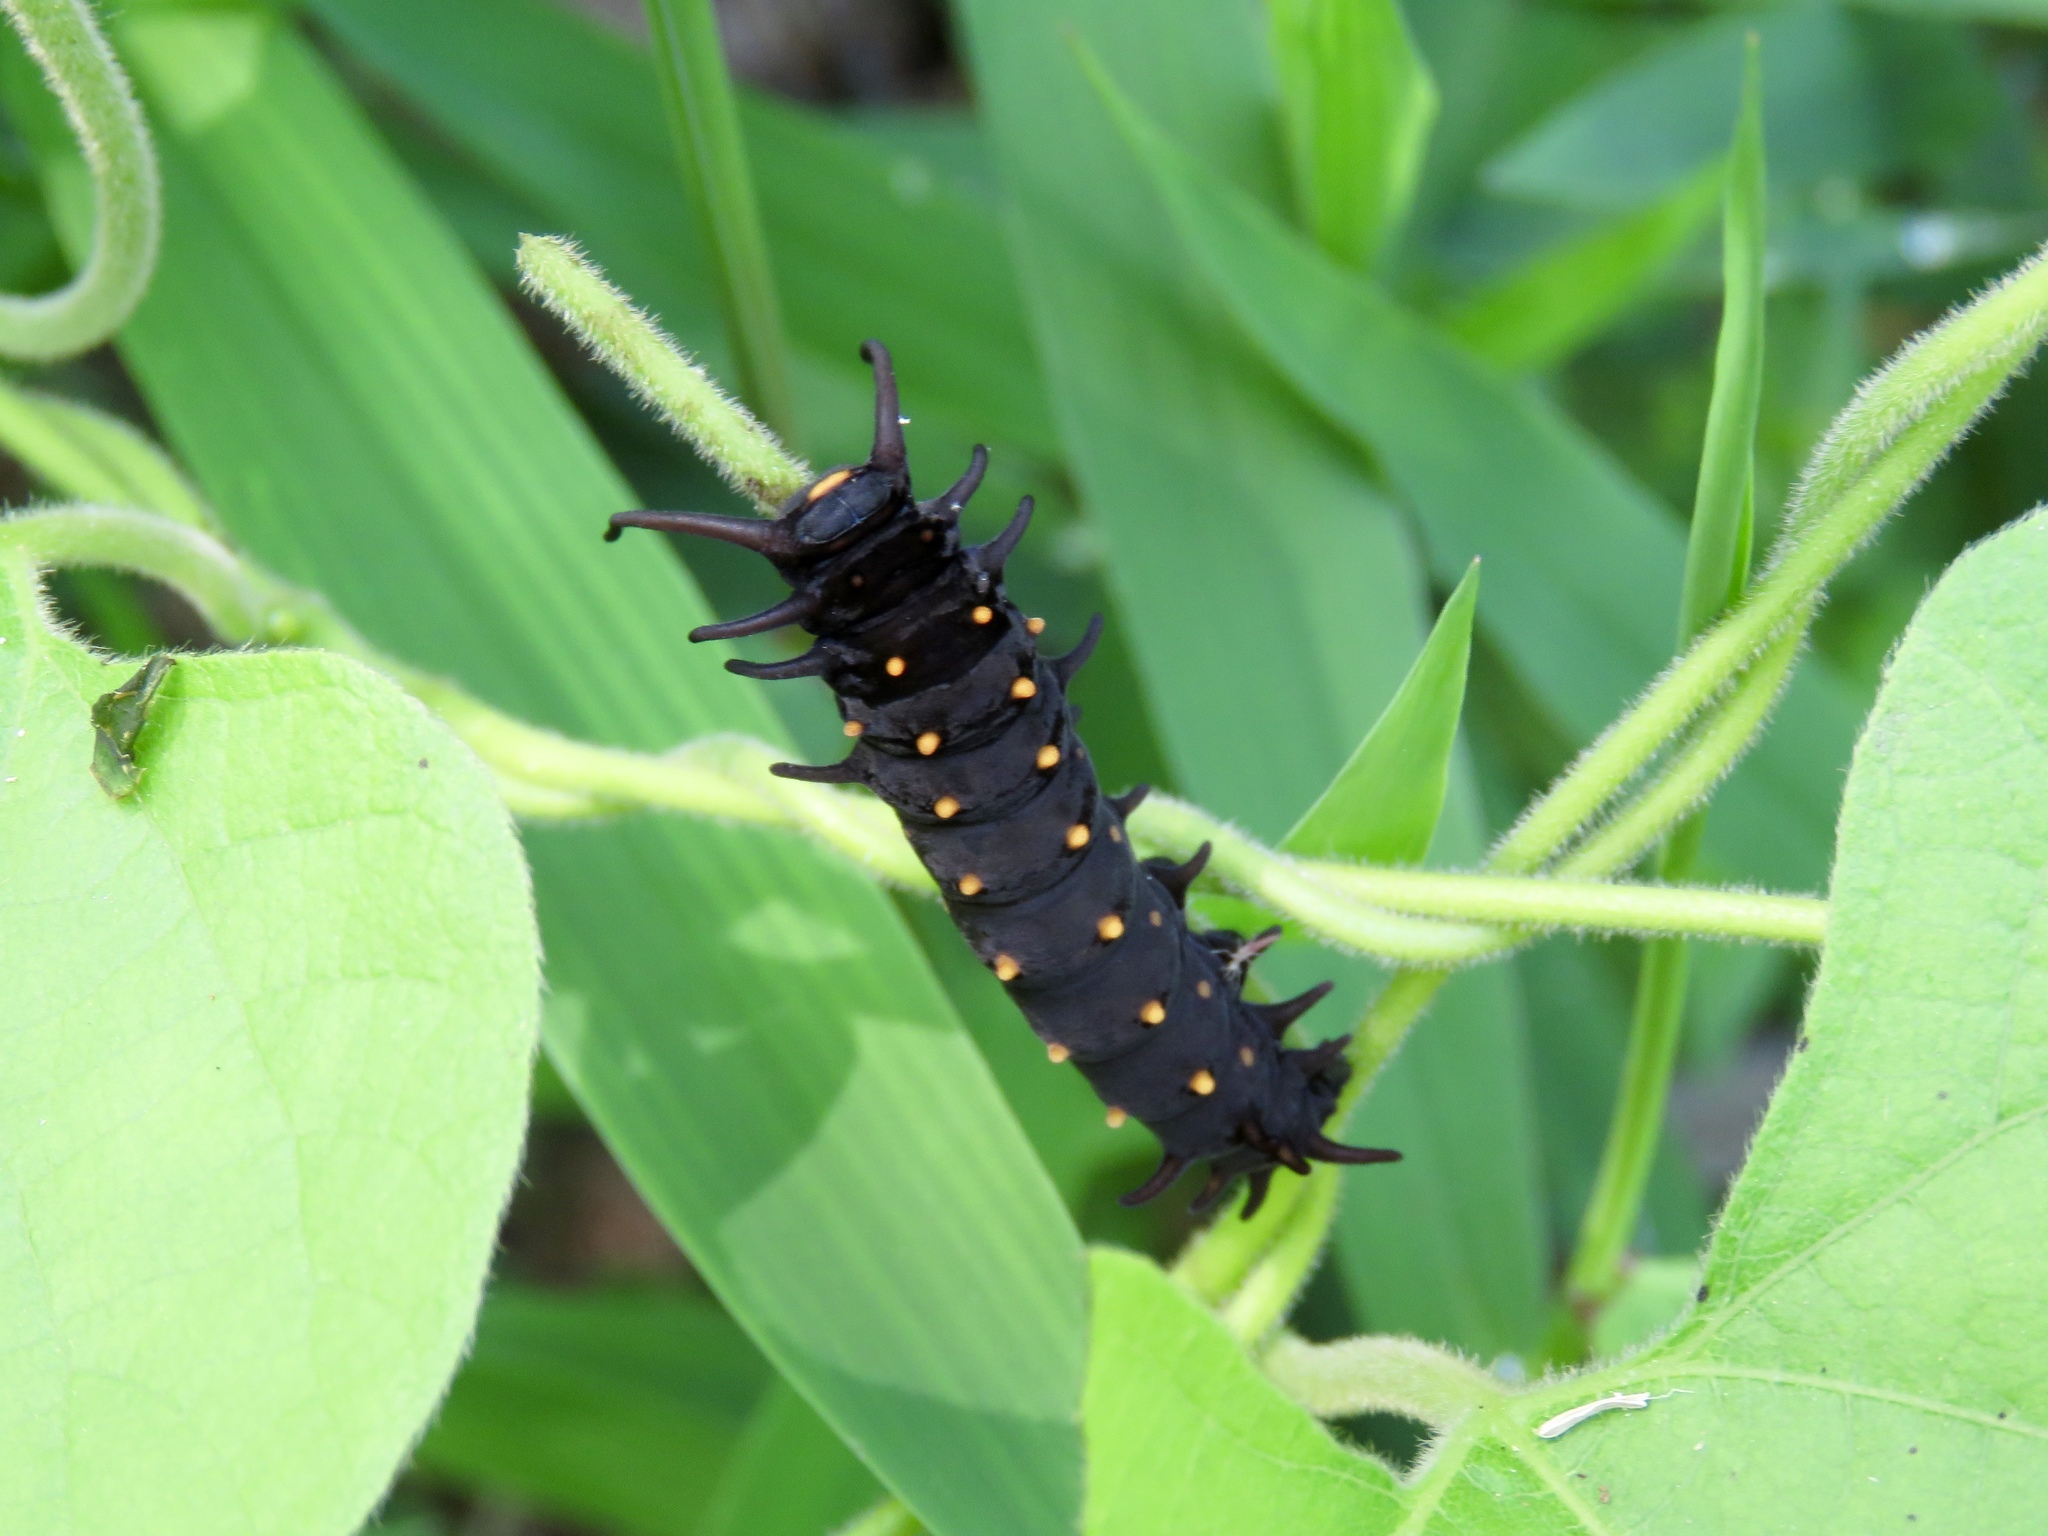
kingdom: Animalia
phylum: Arthropoda
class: Insecta
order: Lepidoptera
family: Papilionidae
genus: Battus
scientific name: Battus philenor
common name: Pipevine swallowtail
